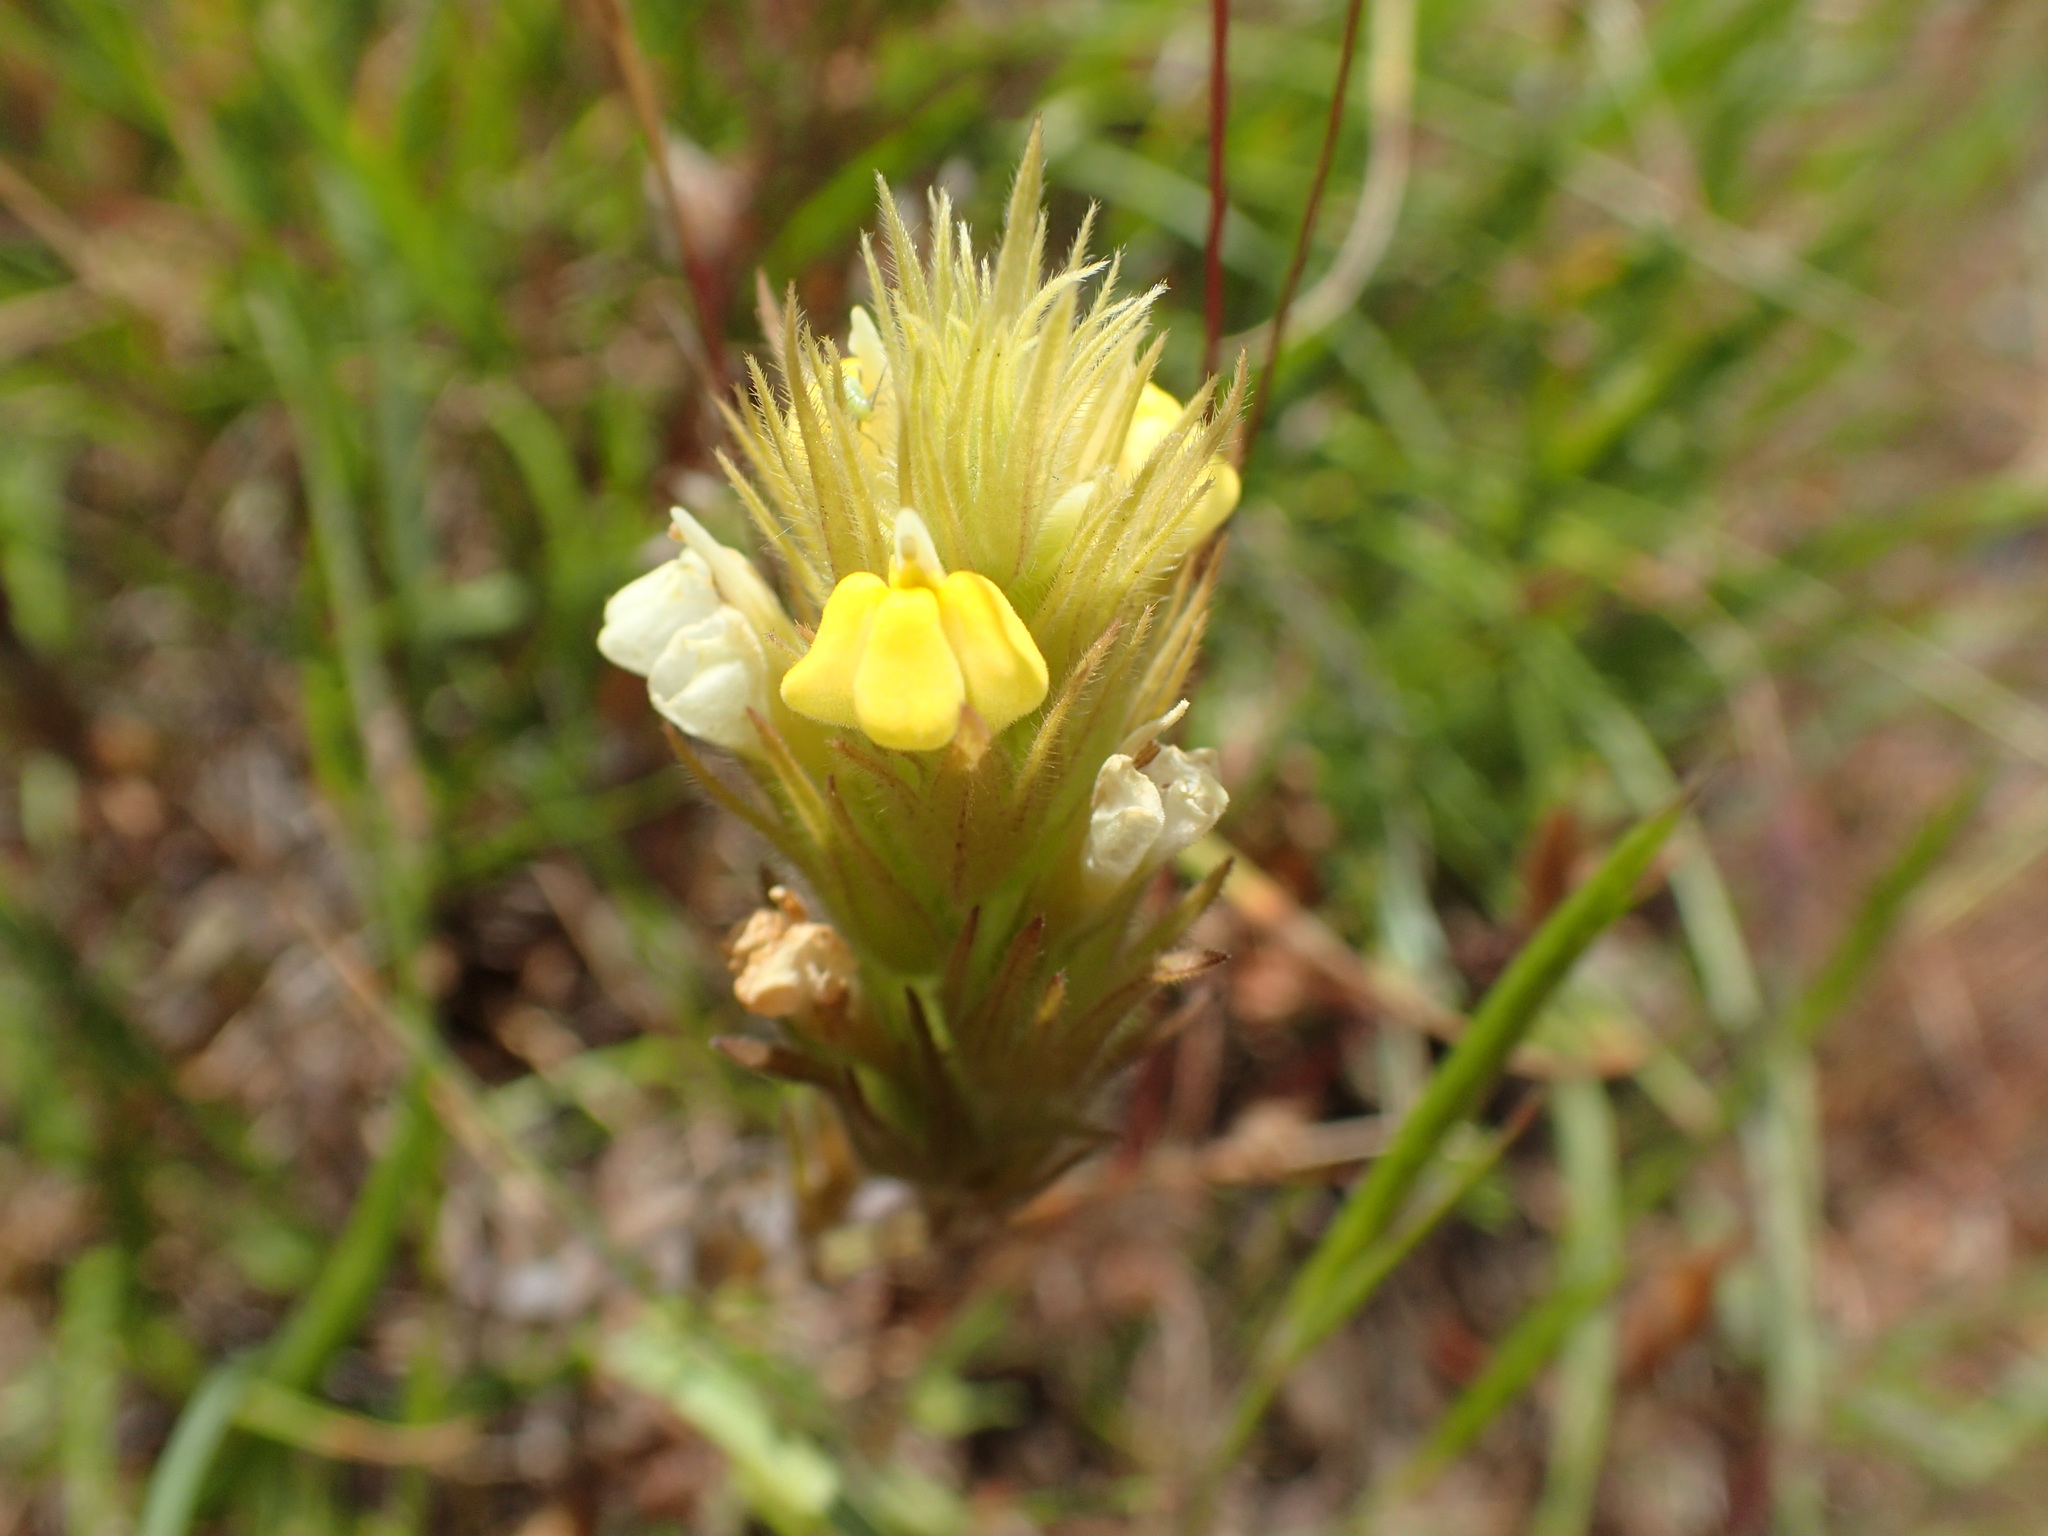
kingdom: Plantae
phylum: Tracheophyta
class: Magnoliopsida
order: Lamiales
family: Orobanchaceae
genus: Castilleja
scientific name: Castilleja rubicundula
